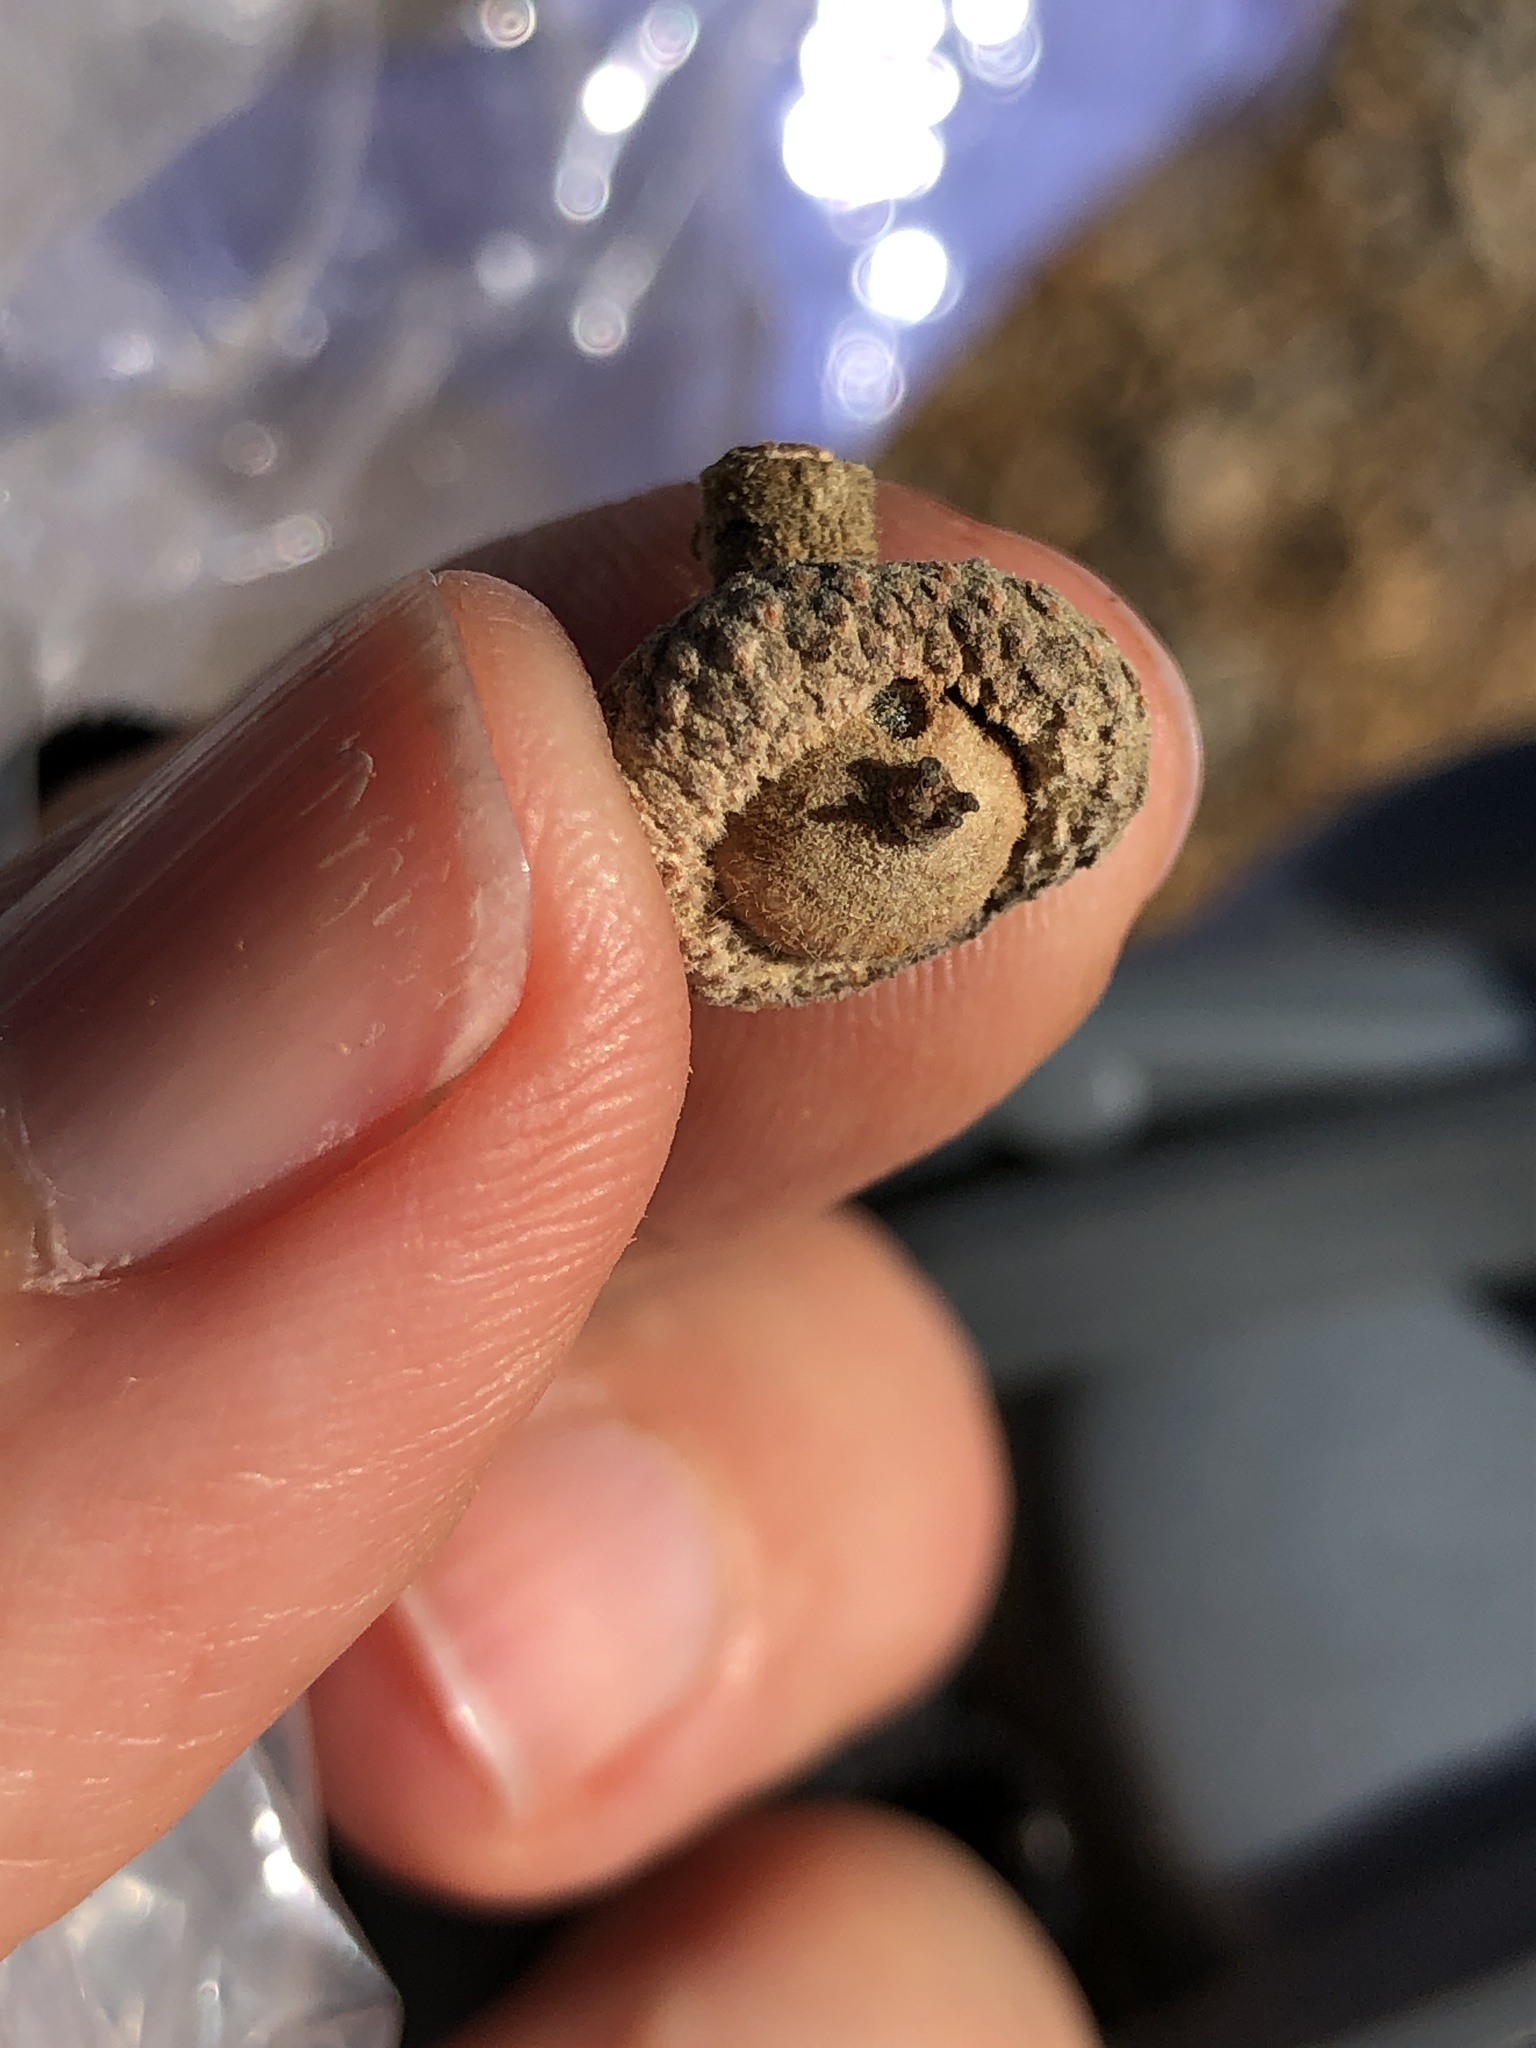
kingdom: Animalia
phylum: Arthropoda
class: Insecta
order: Hymenoptera
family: Cynipidae
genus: Andricus
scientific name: Andricus
